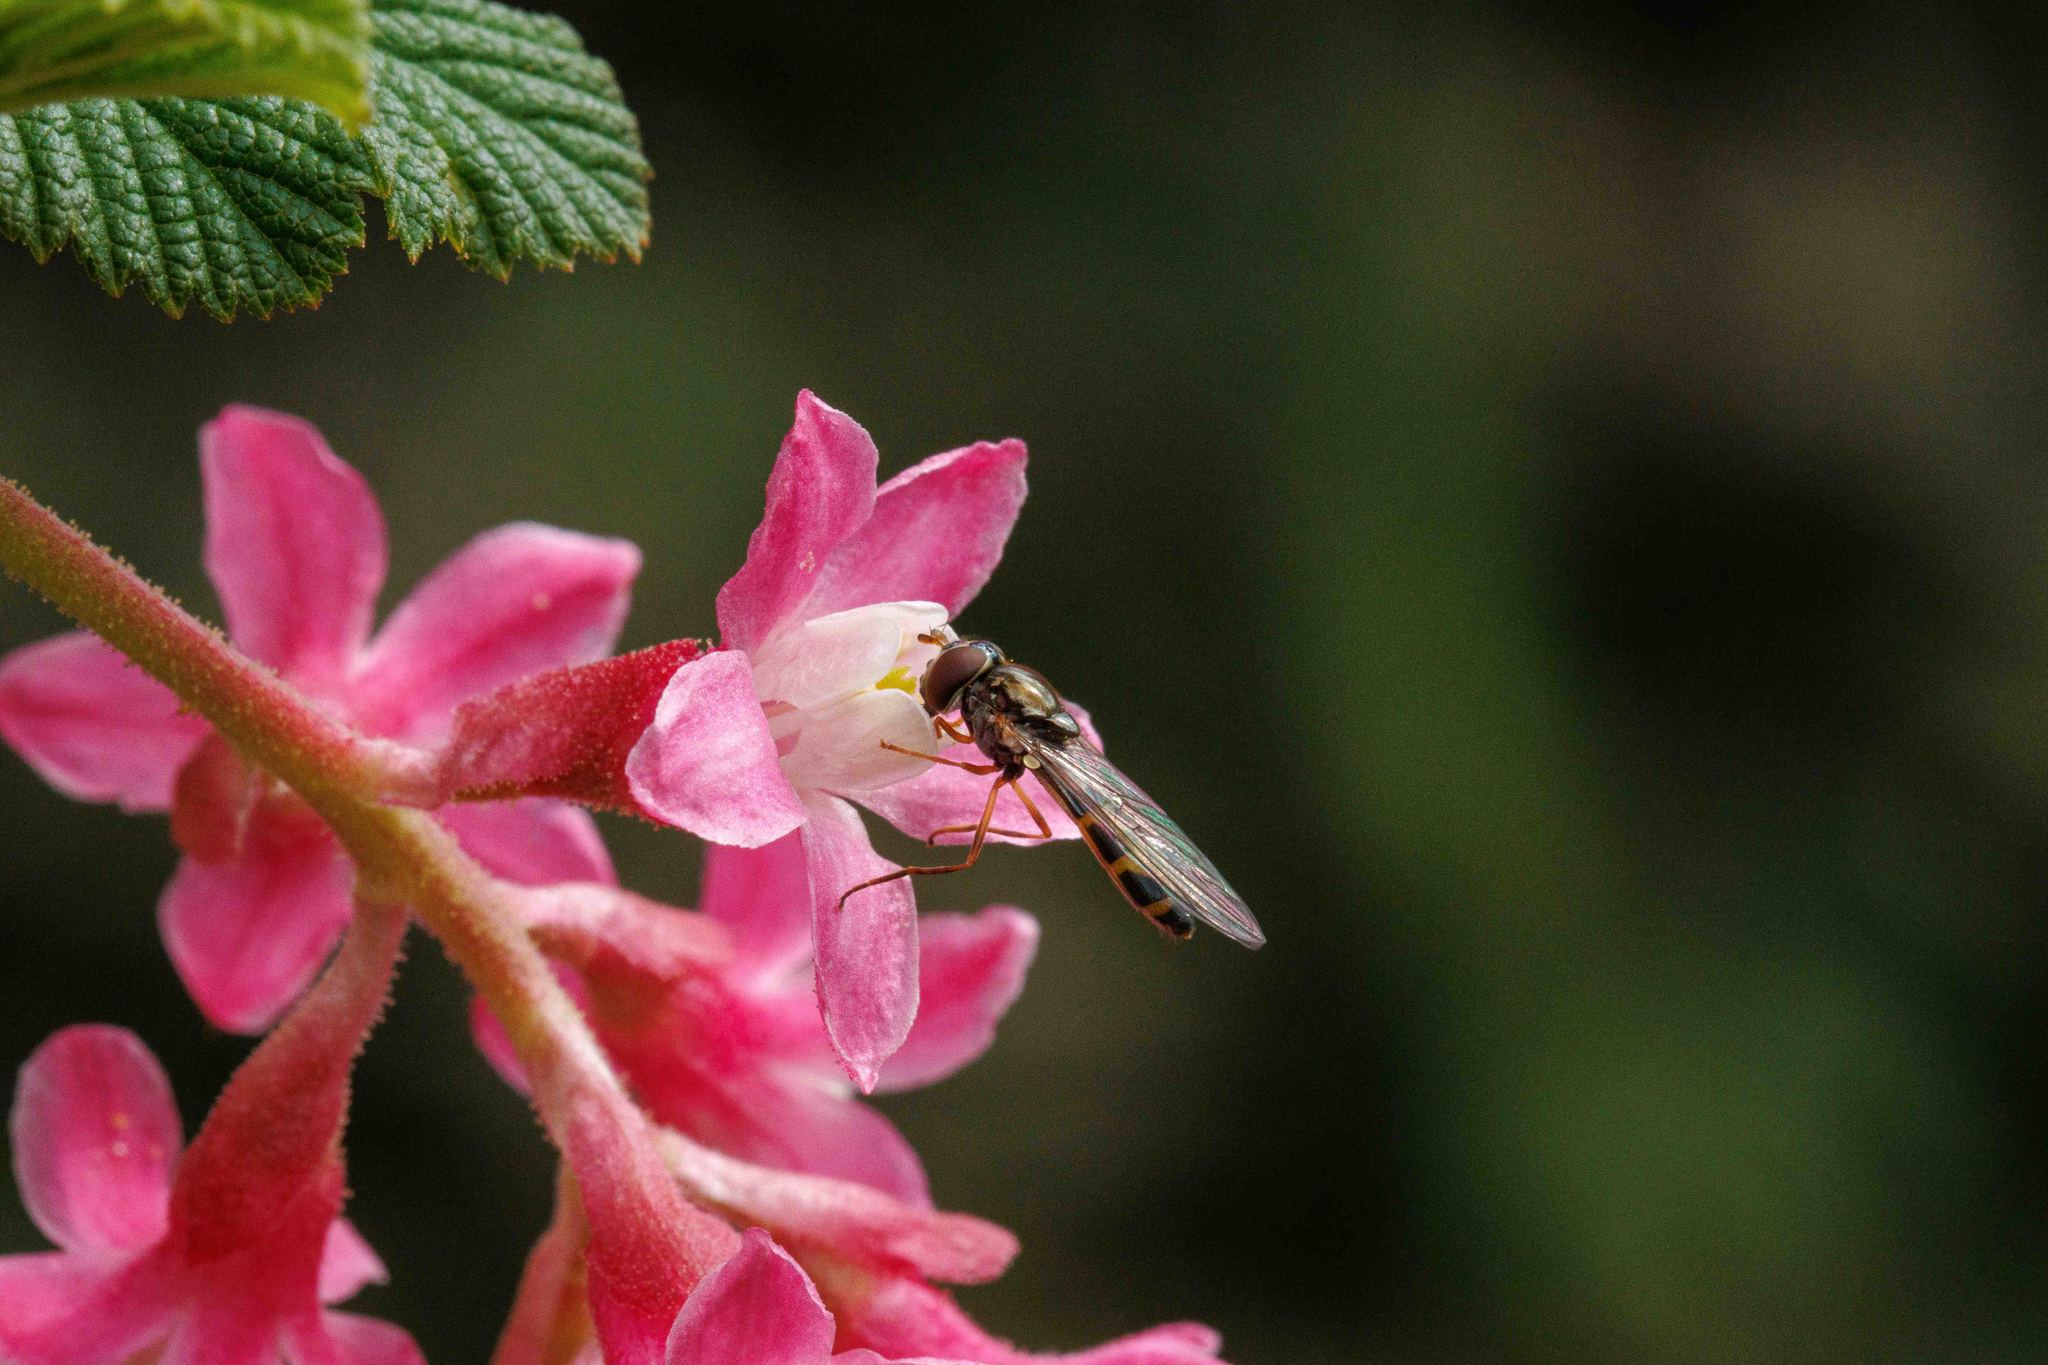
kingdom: Animalia
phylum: Arthropoda
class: Insecta
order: Diptera
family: Syrphidae
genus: Melanostoma
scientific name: Melanostoma mellina
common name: Hover fly
